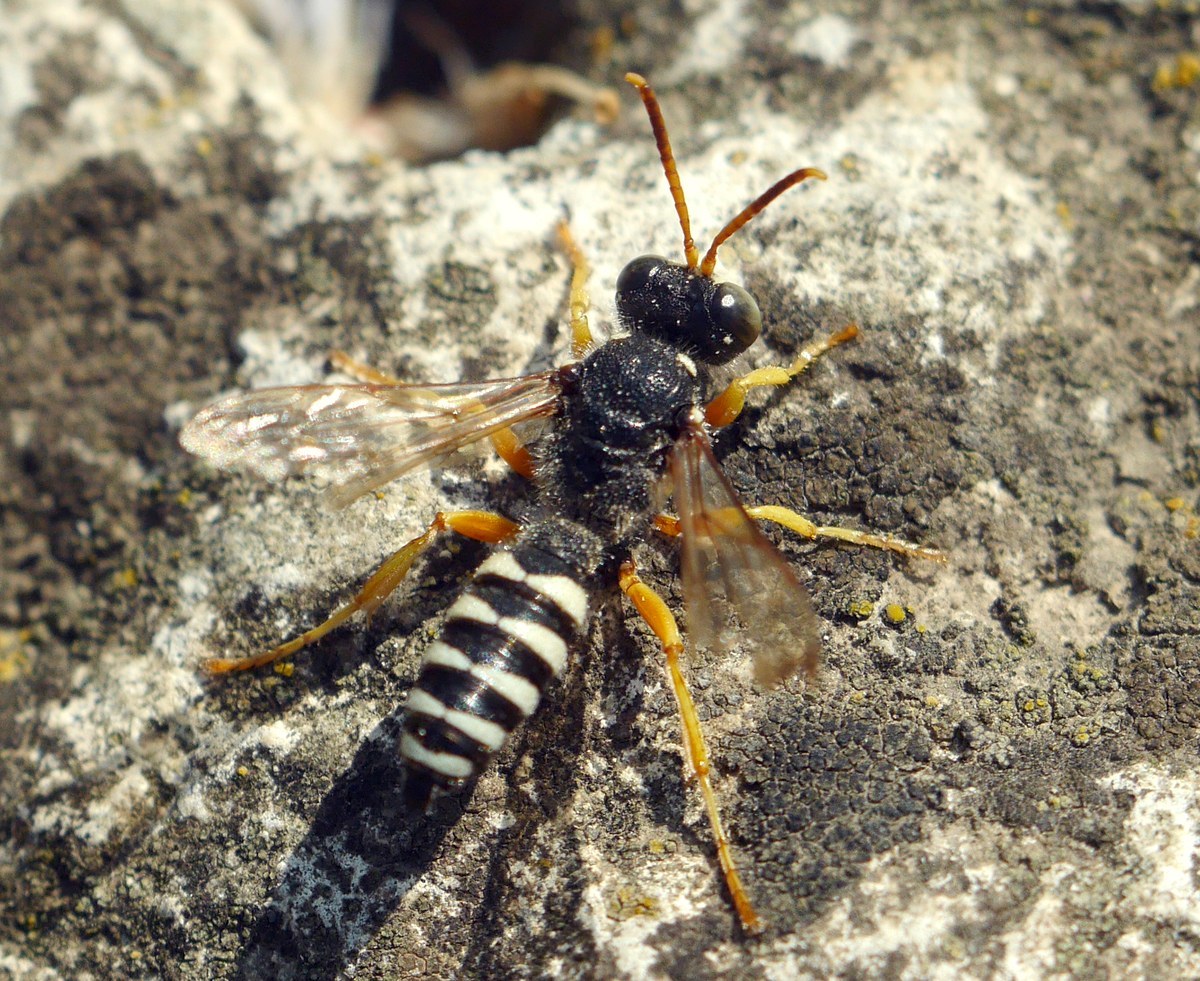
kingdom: Animalia
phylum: Arthropoda
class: Insecta
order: Hymenoptera
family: Crabronidae
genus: Cerceris
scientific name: Cerceris tuberculata
